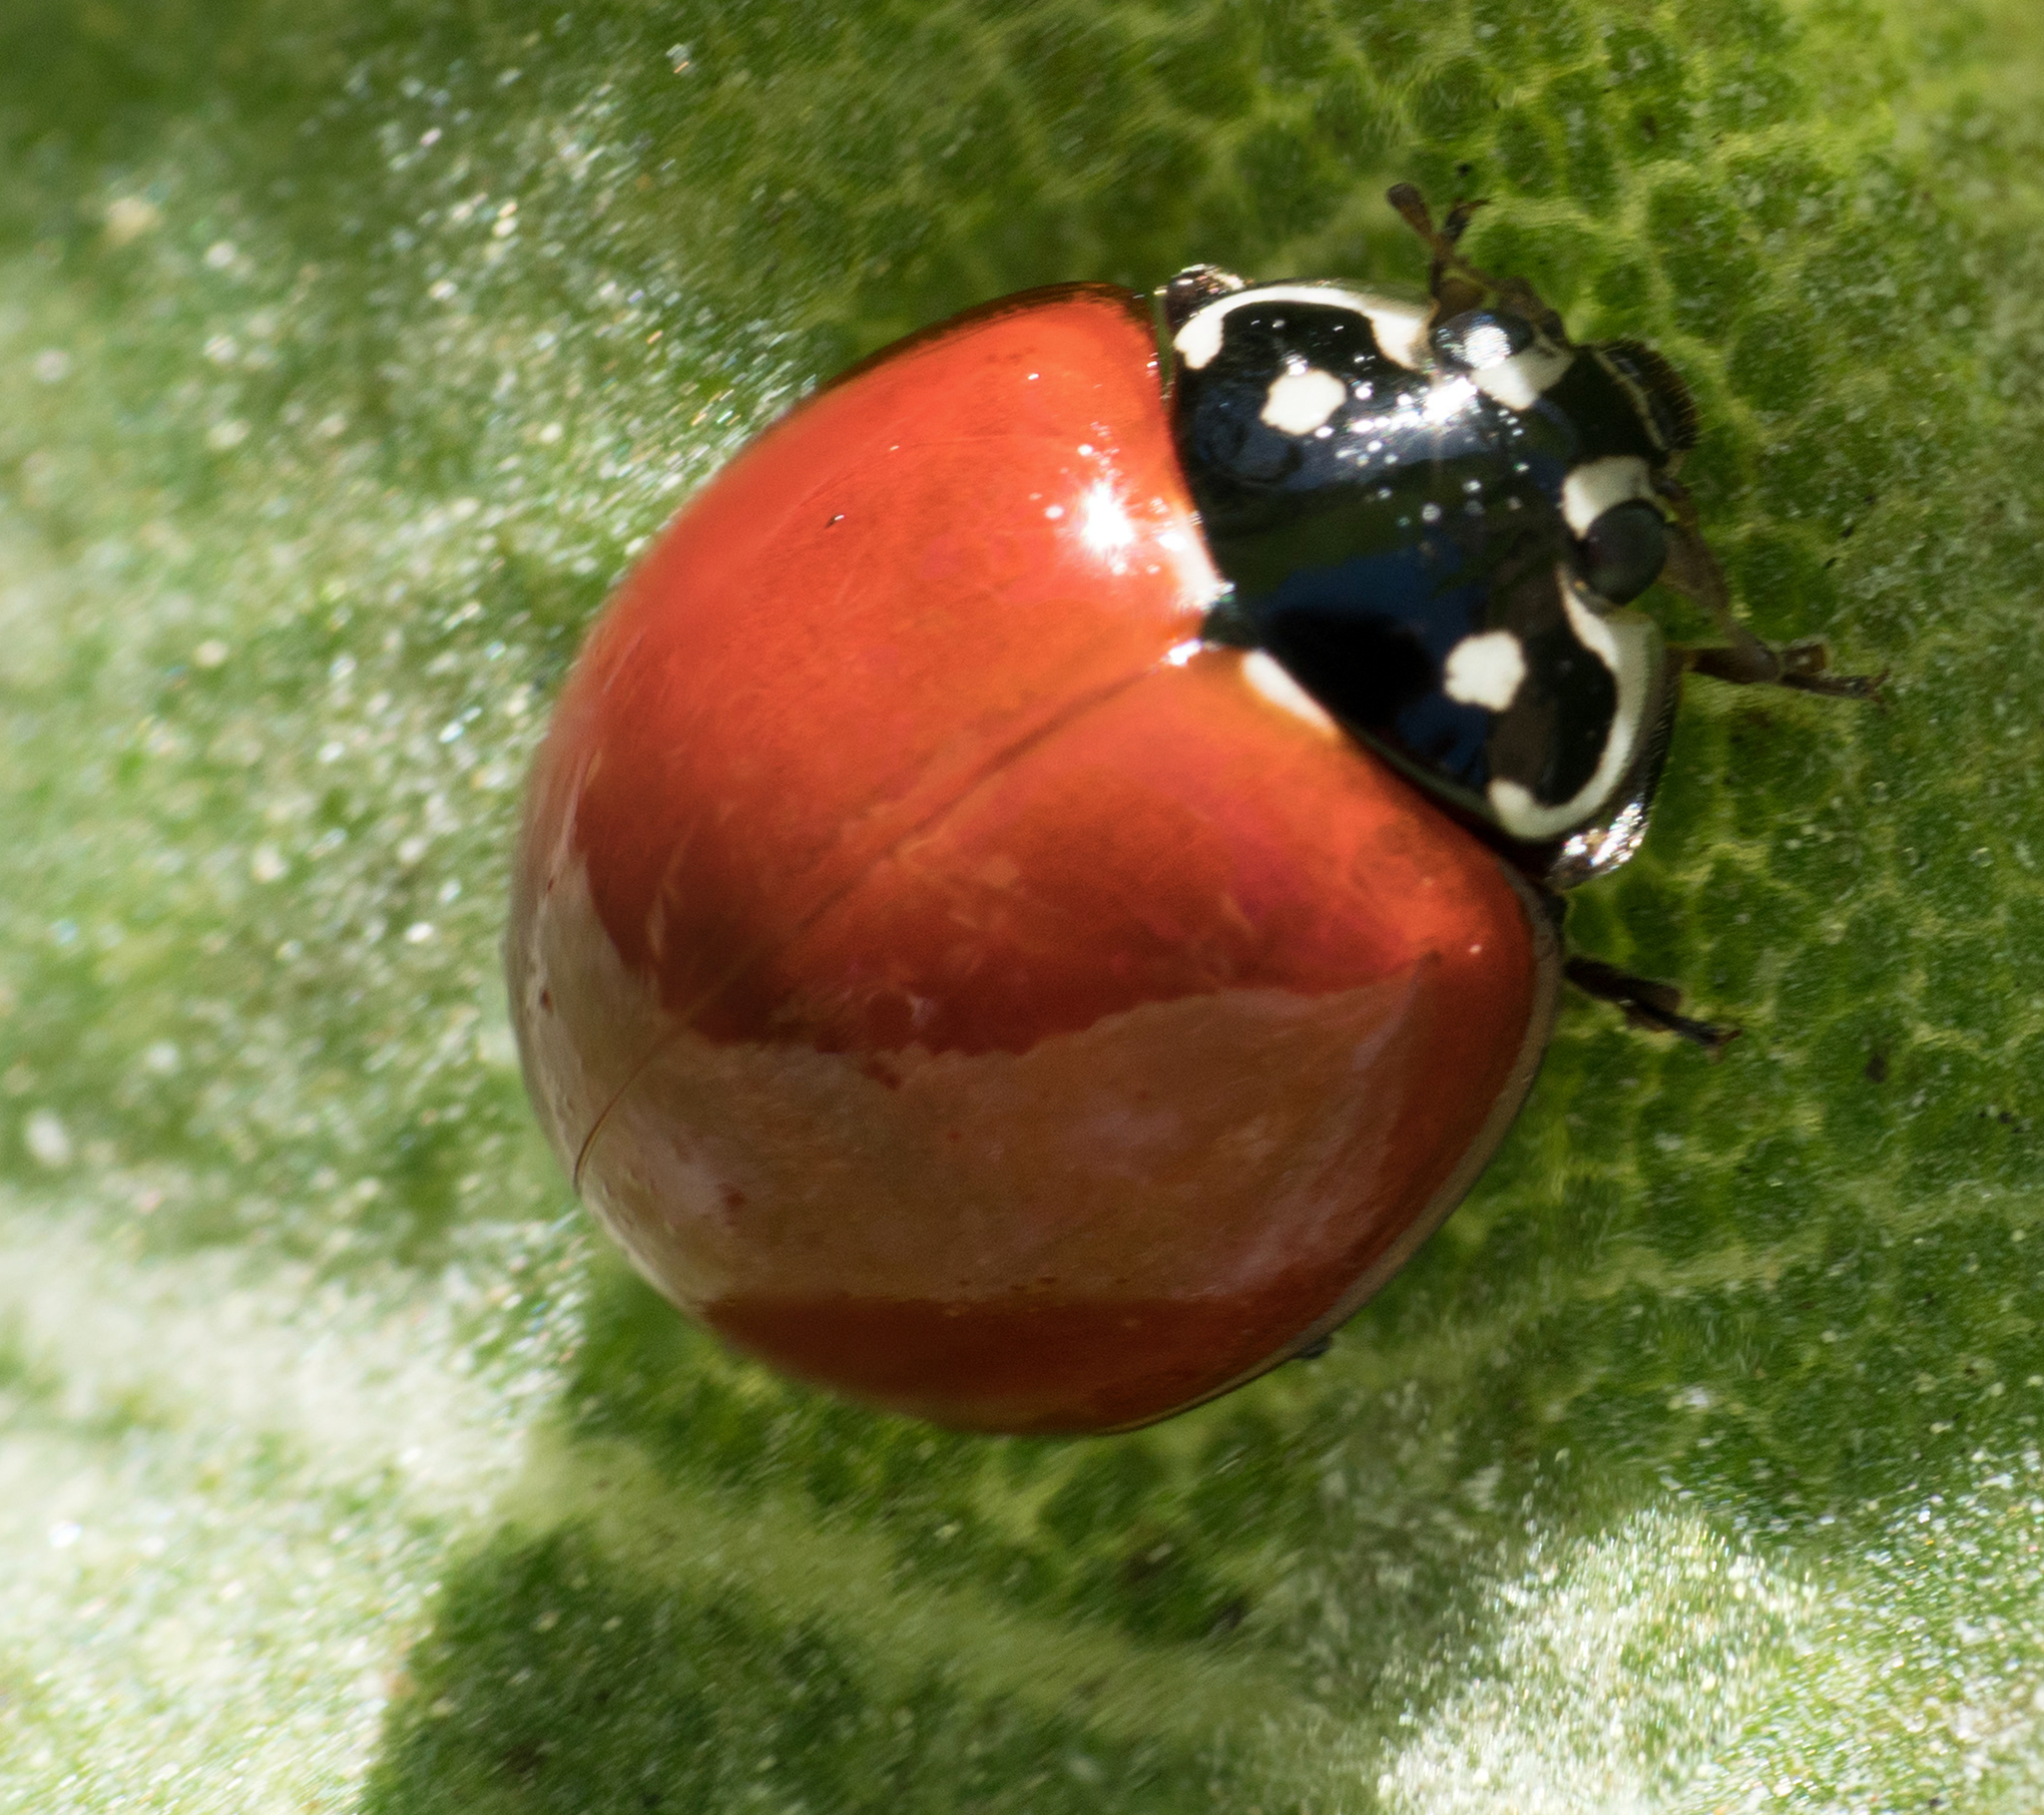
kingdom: Animalia
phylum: Arthropoda
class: Insecta
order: Coleoptera
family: Coccinellidae
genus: Cycloneda
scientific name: Cycloneda sanguinea
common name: Ladybird beetle
